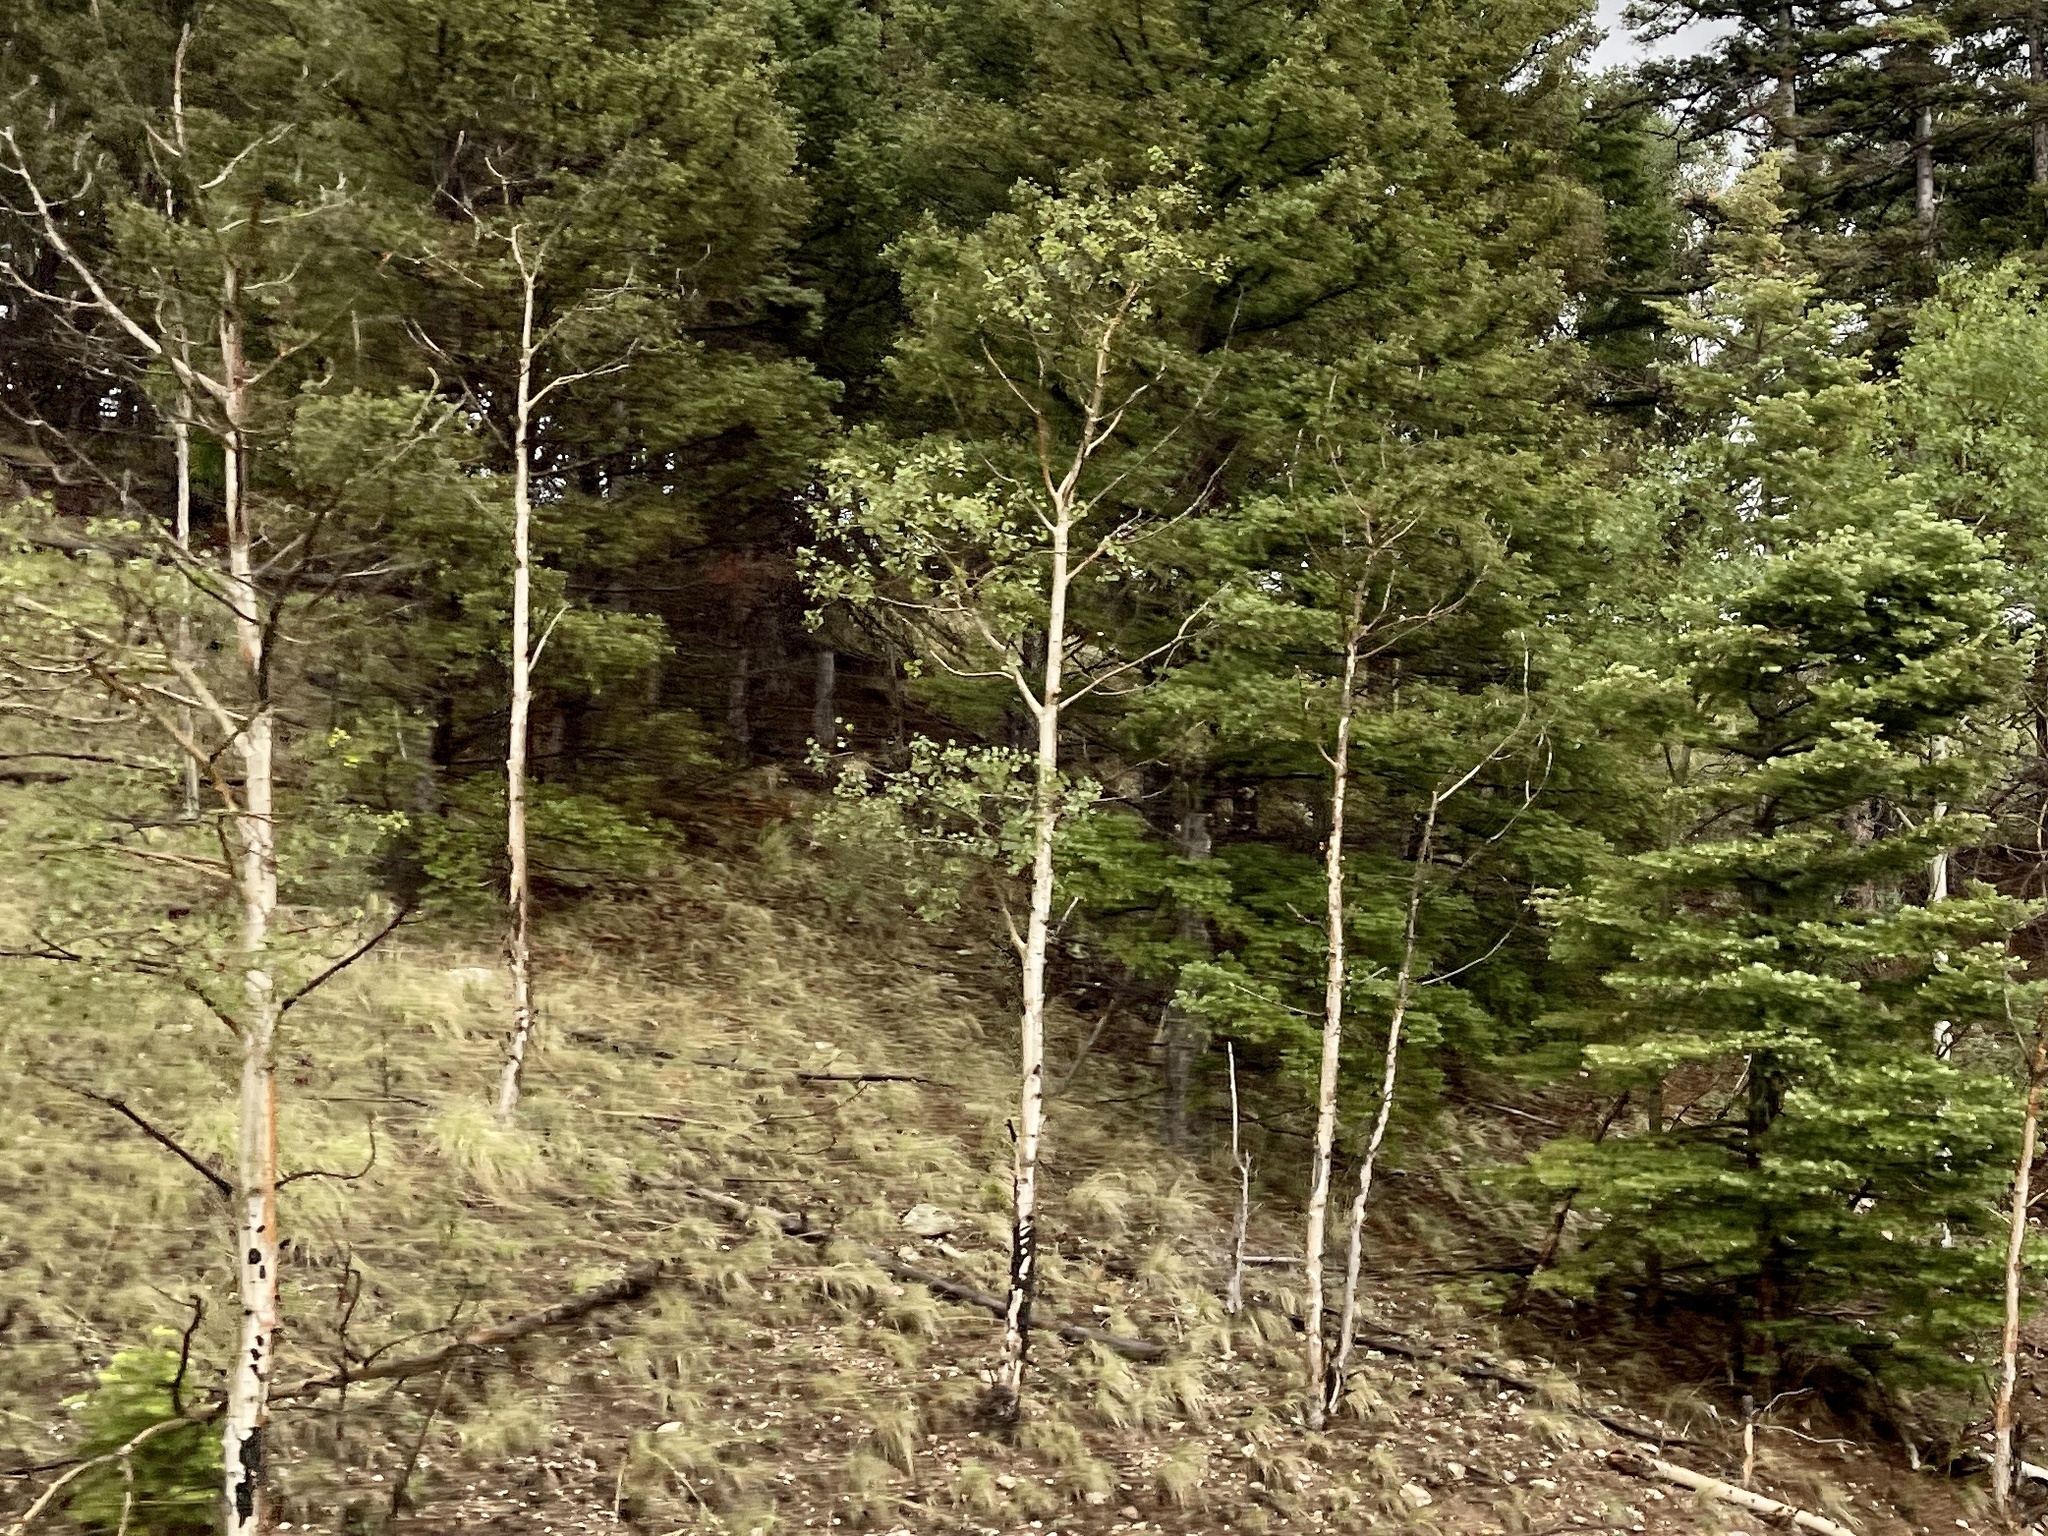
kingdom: Plantae
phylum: Tracheophyta
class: Magnoliopsida
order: Malpighiales
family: Salicaceae
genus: Populus
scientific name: Populus tremuloides
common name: Quaking aspen
